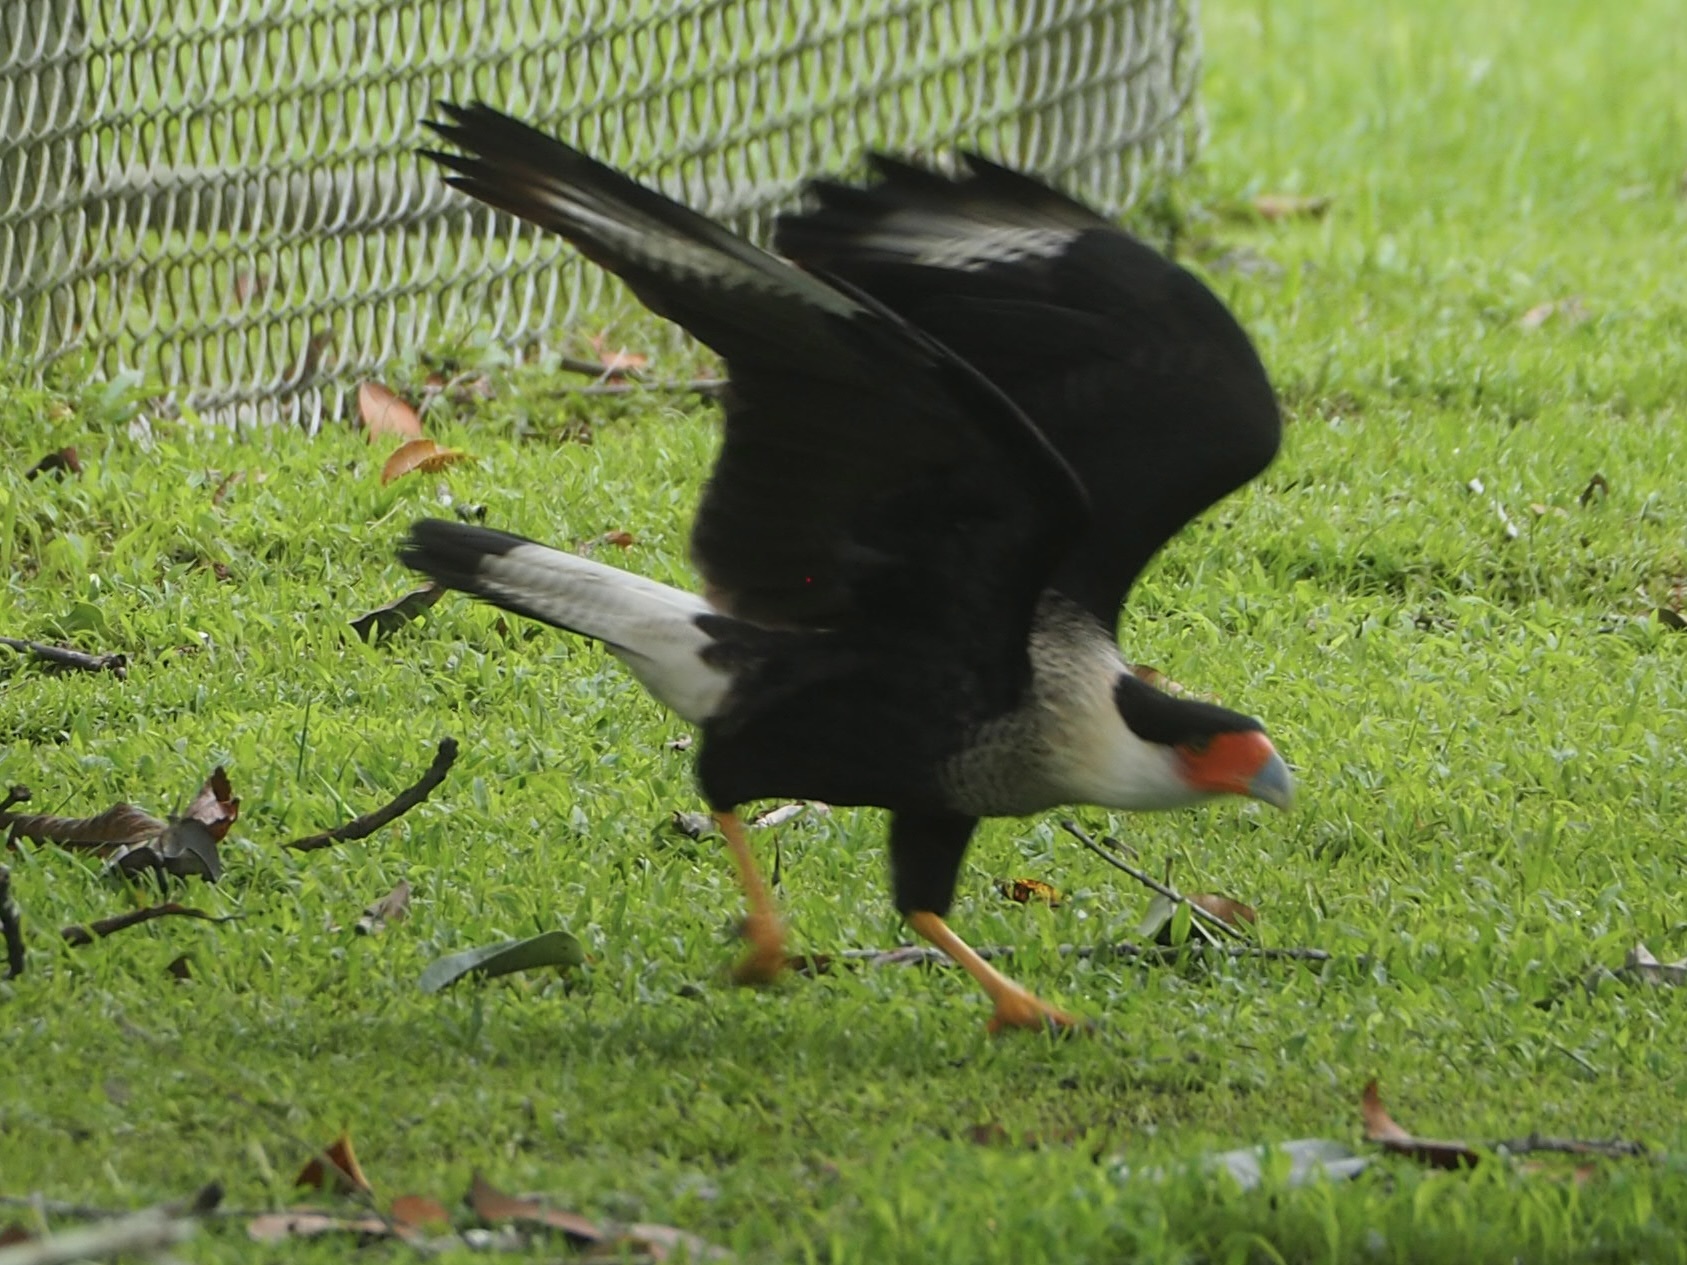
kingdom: Animalia
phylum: Chordata
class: Aves
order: Falconiformes
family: Falconidae
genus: Caracara
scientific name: Caracara plancus
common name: Southern caracara
